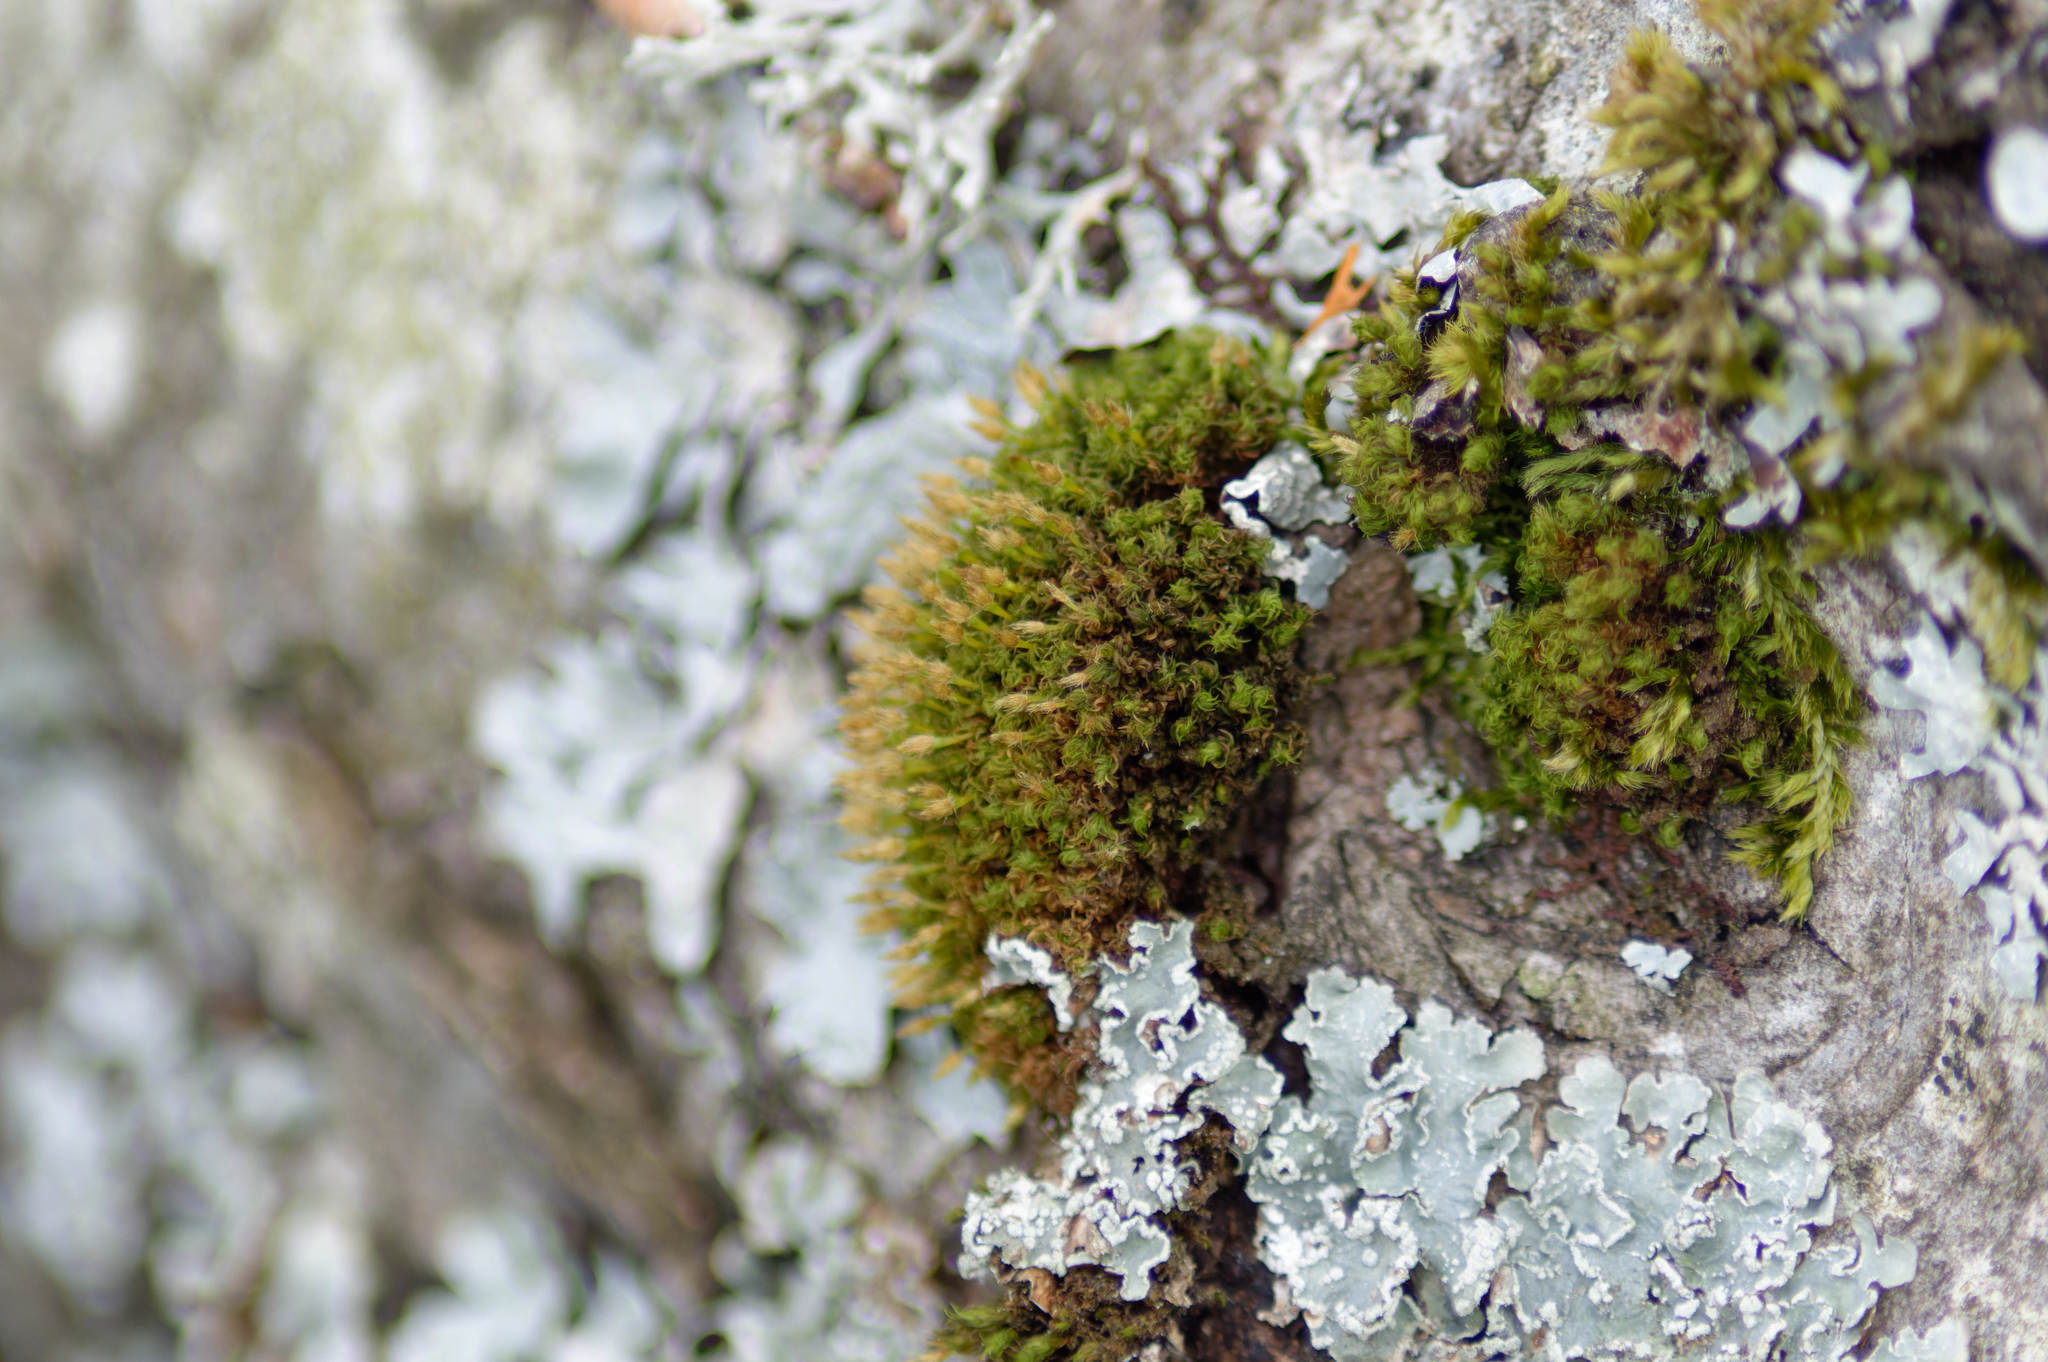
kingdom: Plantae
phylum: Bryophyta
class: Bryopsida
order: Orthotrichales
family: Orthotrichaceae
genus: Ulota
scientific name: Ulota crispa
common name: Crisped pincushion moss
